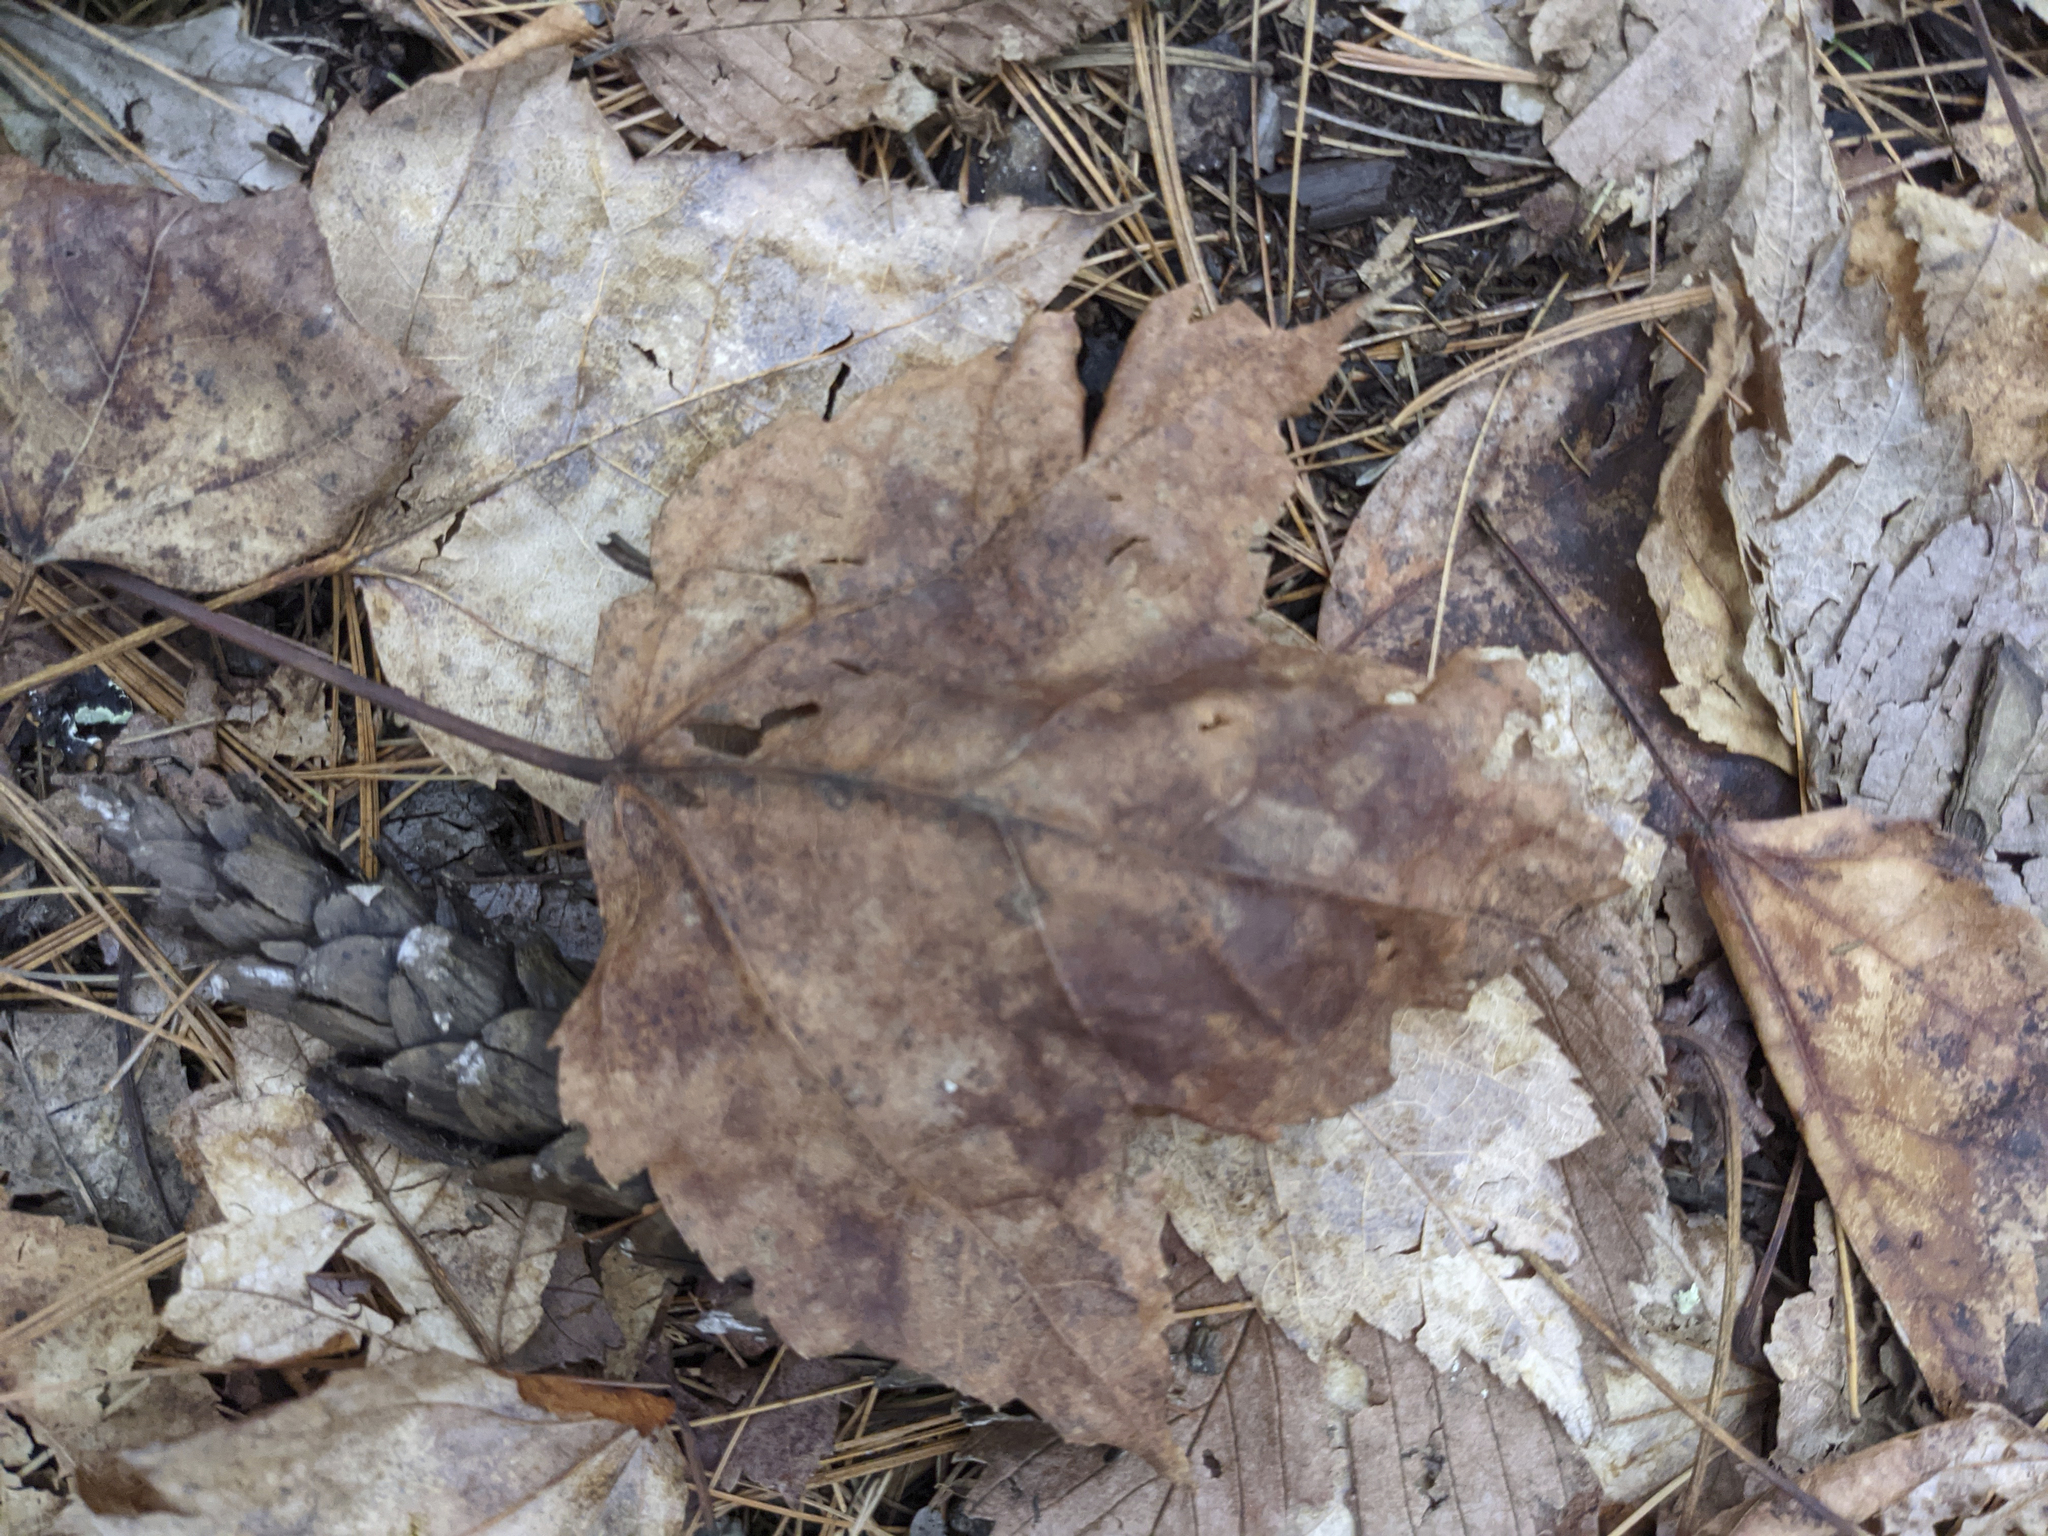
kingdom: Plantae
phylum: Tracheophyta
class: Magnoliopsida
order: Sapindales
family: Sapindaceae
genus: Acer
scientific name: Acer rubrum
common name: Red maple
